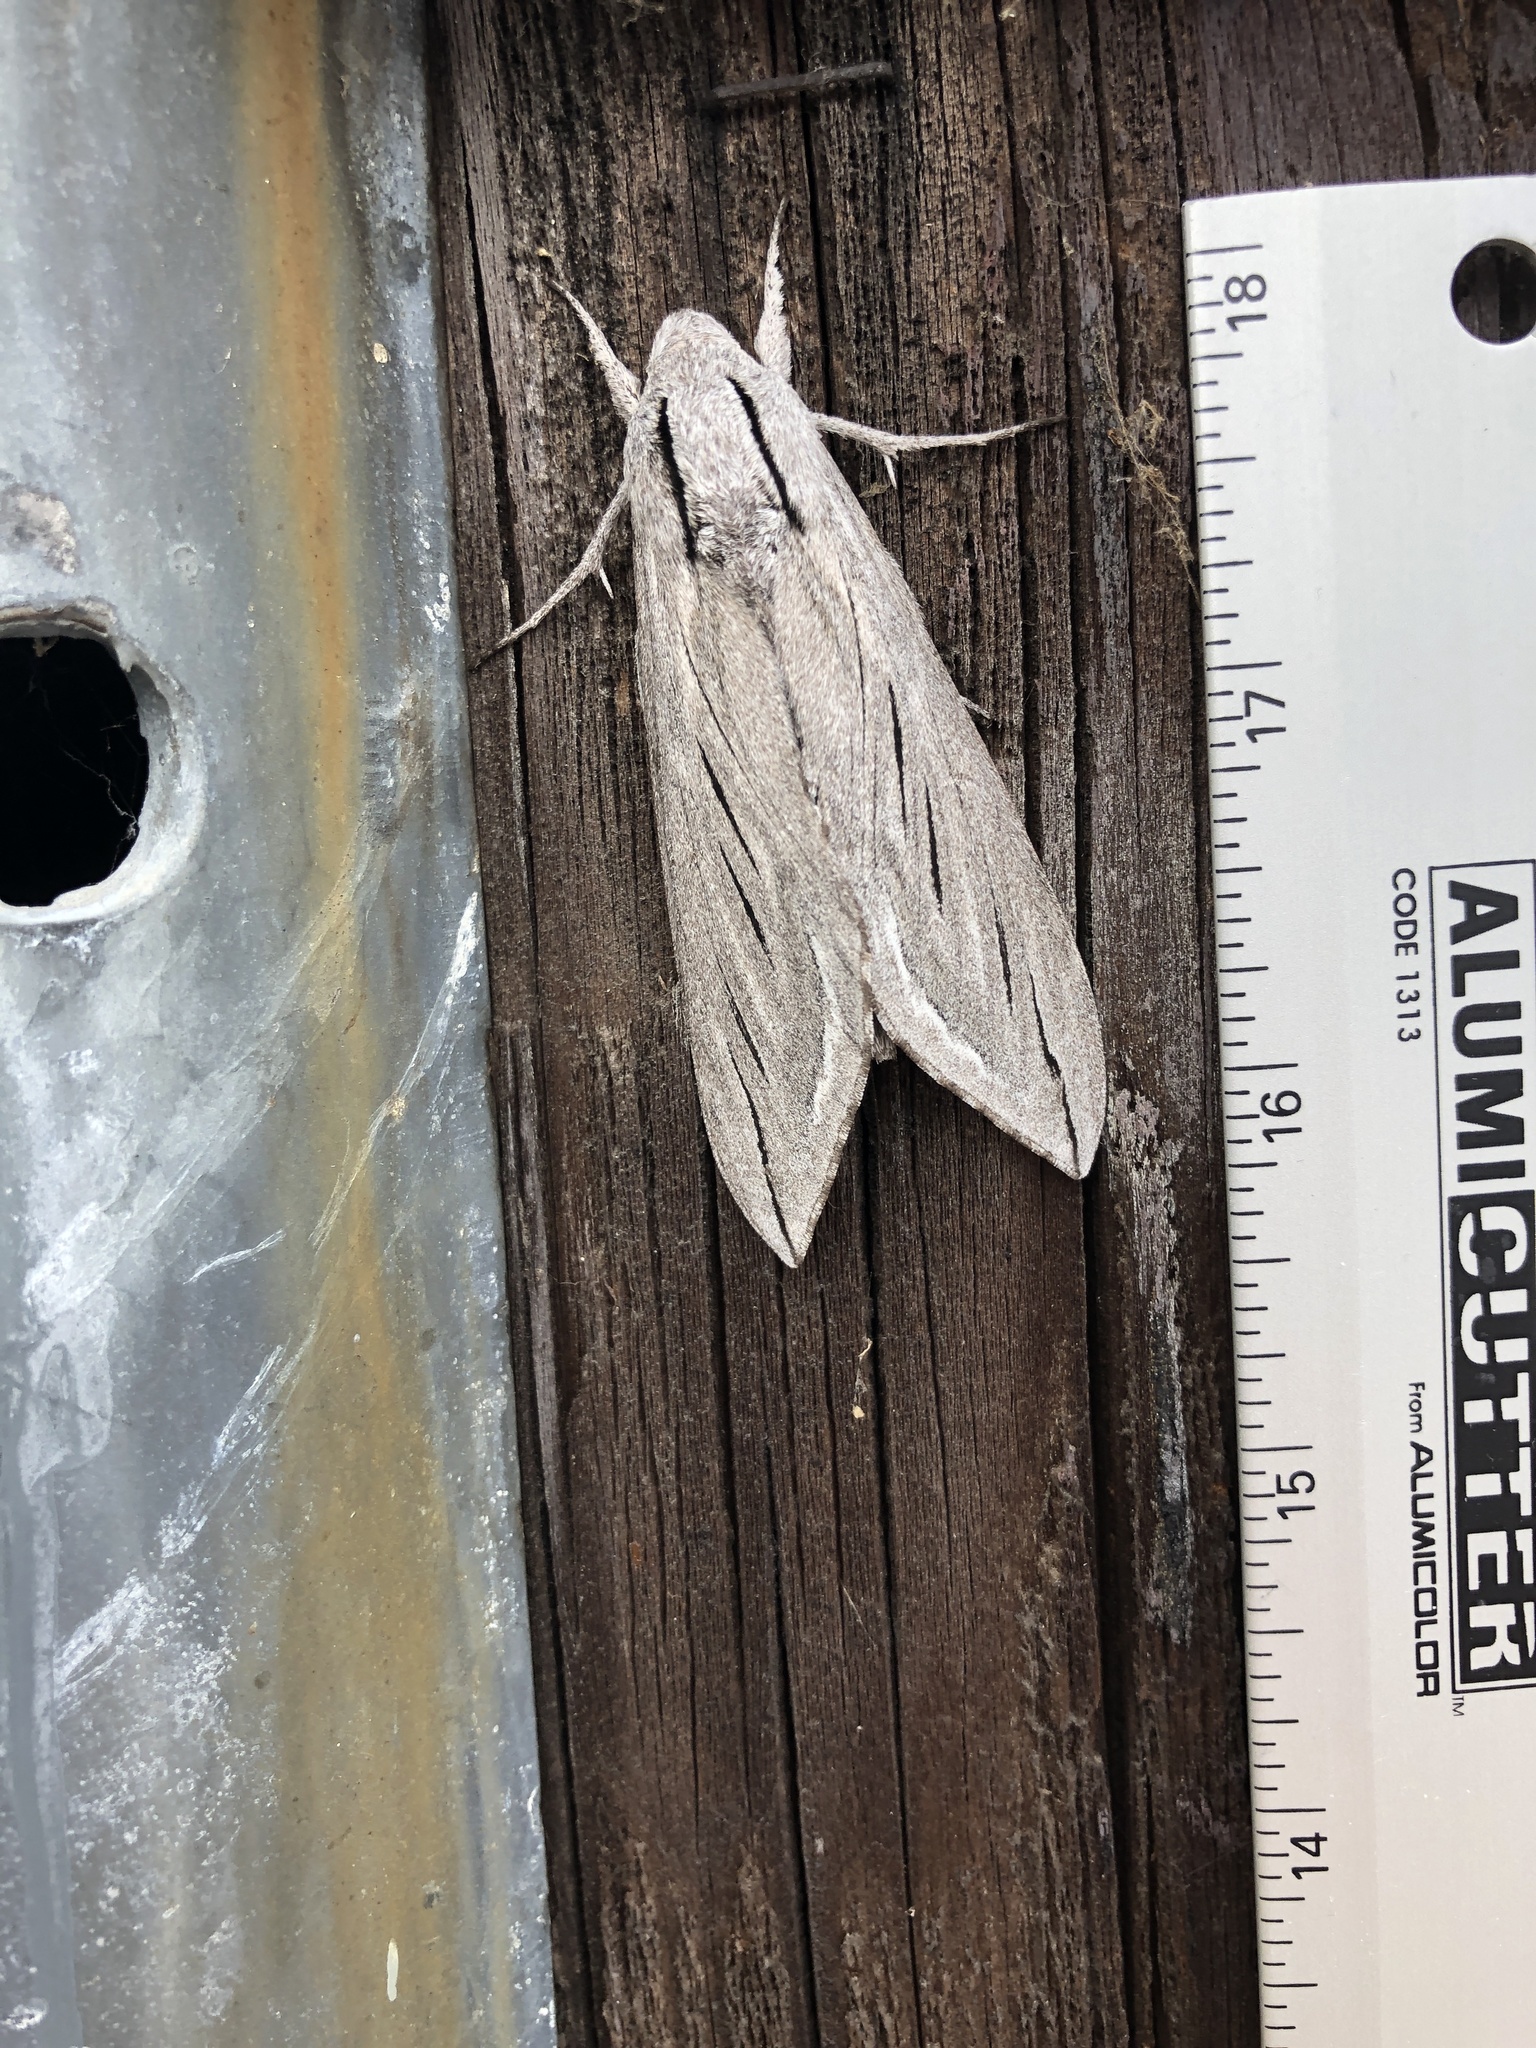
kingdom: Animalia
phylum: Arthropoda
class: Insecta
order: Lepidoptera
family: Sphingidae
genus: Sphinx
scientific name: Sphinx chersis
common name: Great ash sphinx
